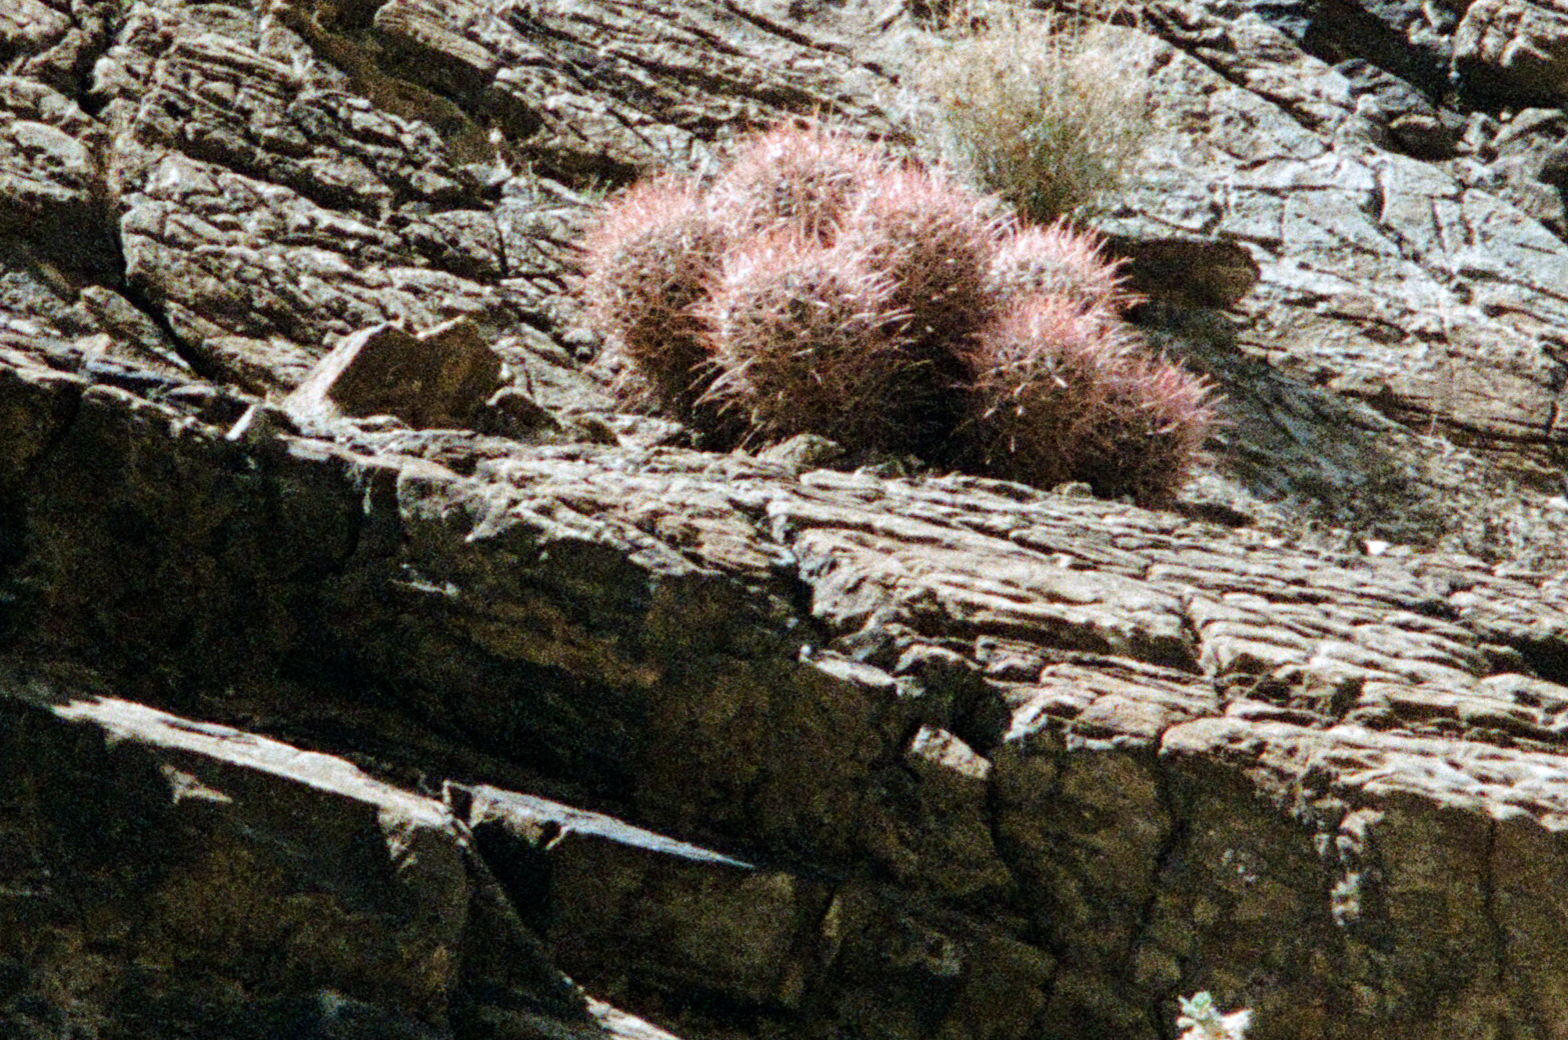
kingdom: Plantae
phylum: Tracheophyta
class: Magnoliopsida
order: Caryophyllales
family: Cactaceae
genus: Echinocactus
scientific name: Echinocactus polycephalus
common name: Cottontop cactus
